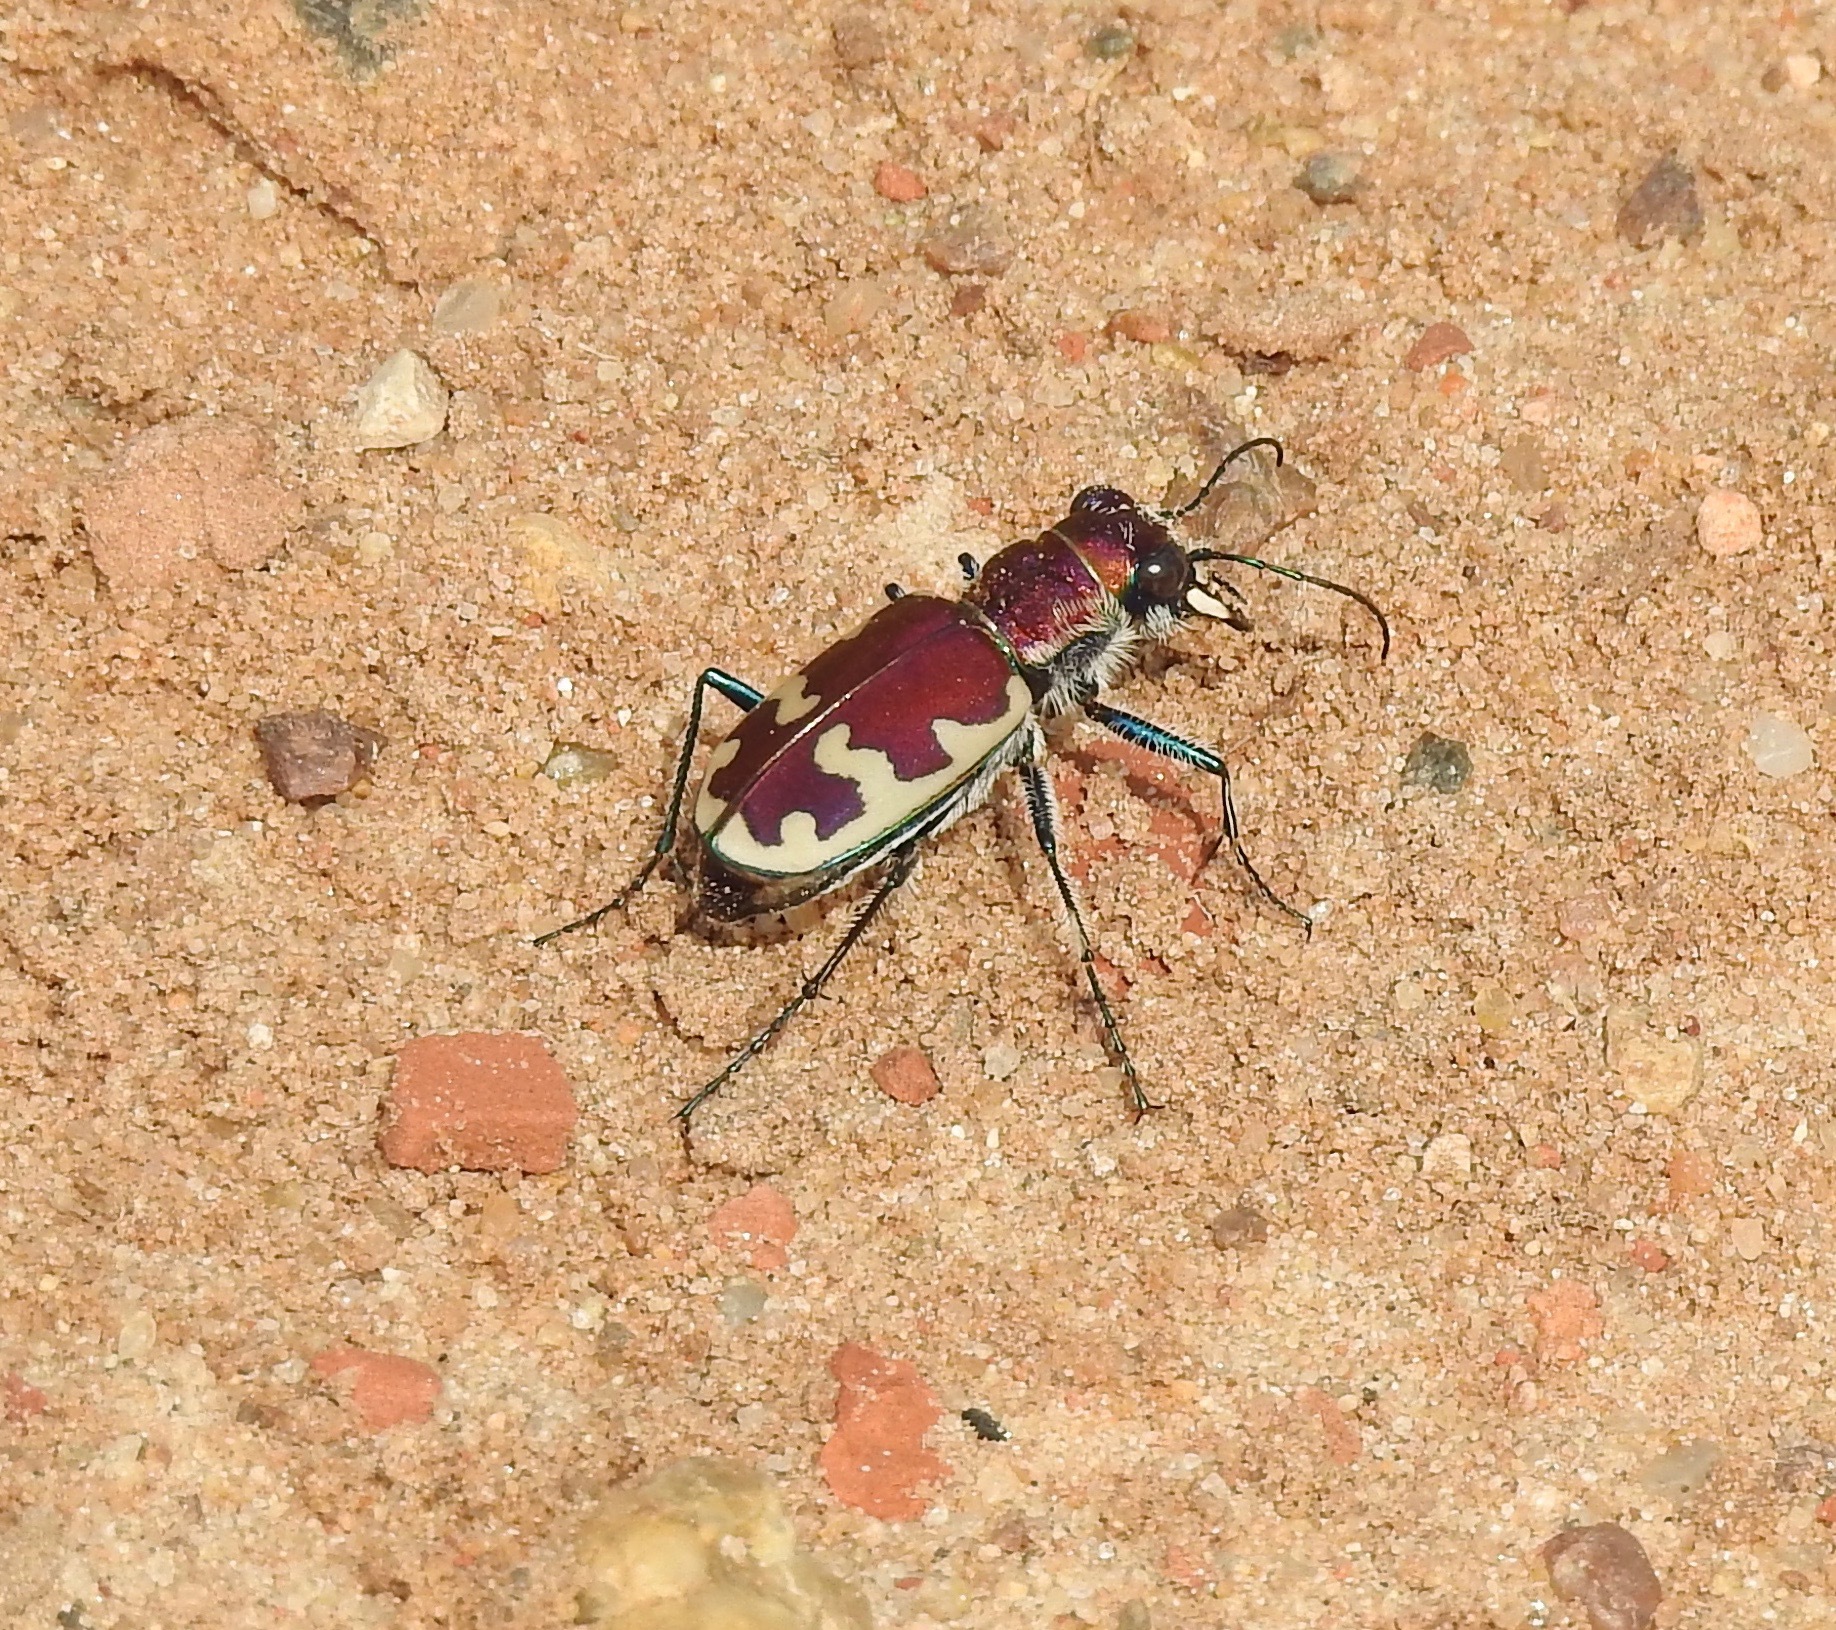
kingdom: Animalia
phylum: Arthropoda
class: Insecta
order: Coleoptera
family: Carabidae
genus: Cicindela
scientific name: Cicindela formosa
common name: Big sand tiger beetle
